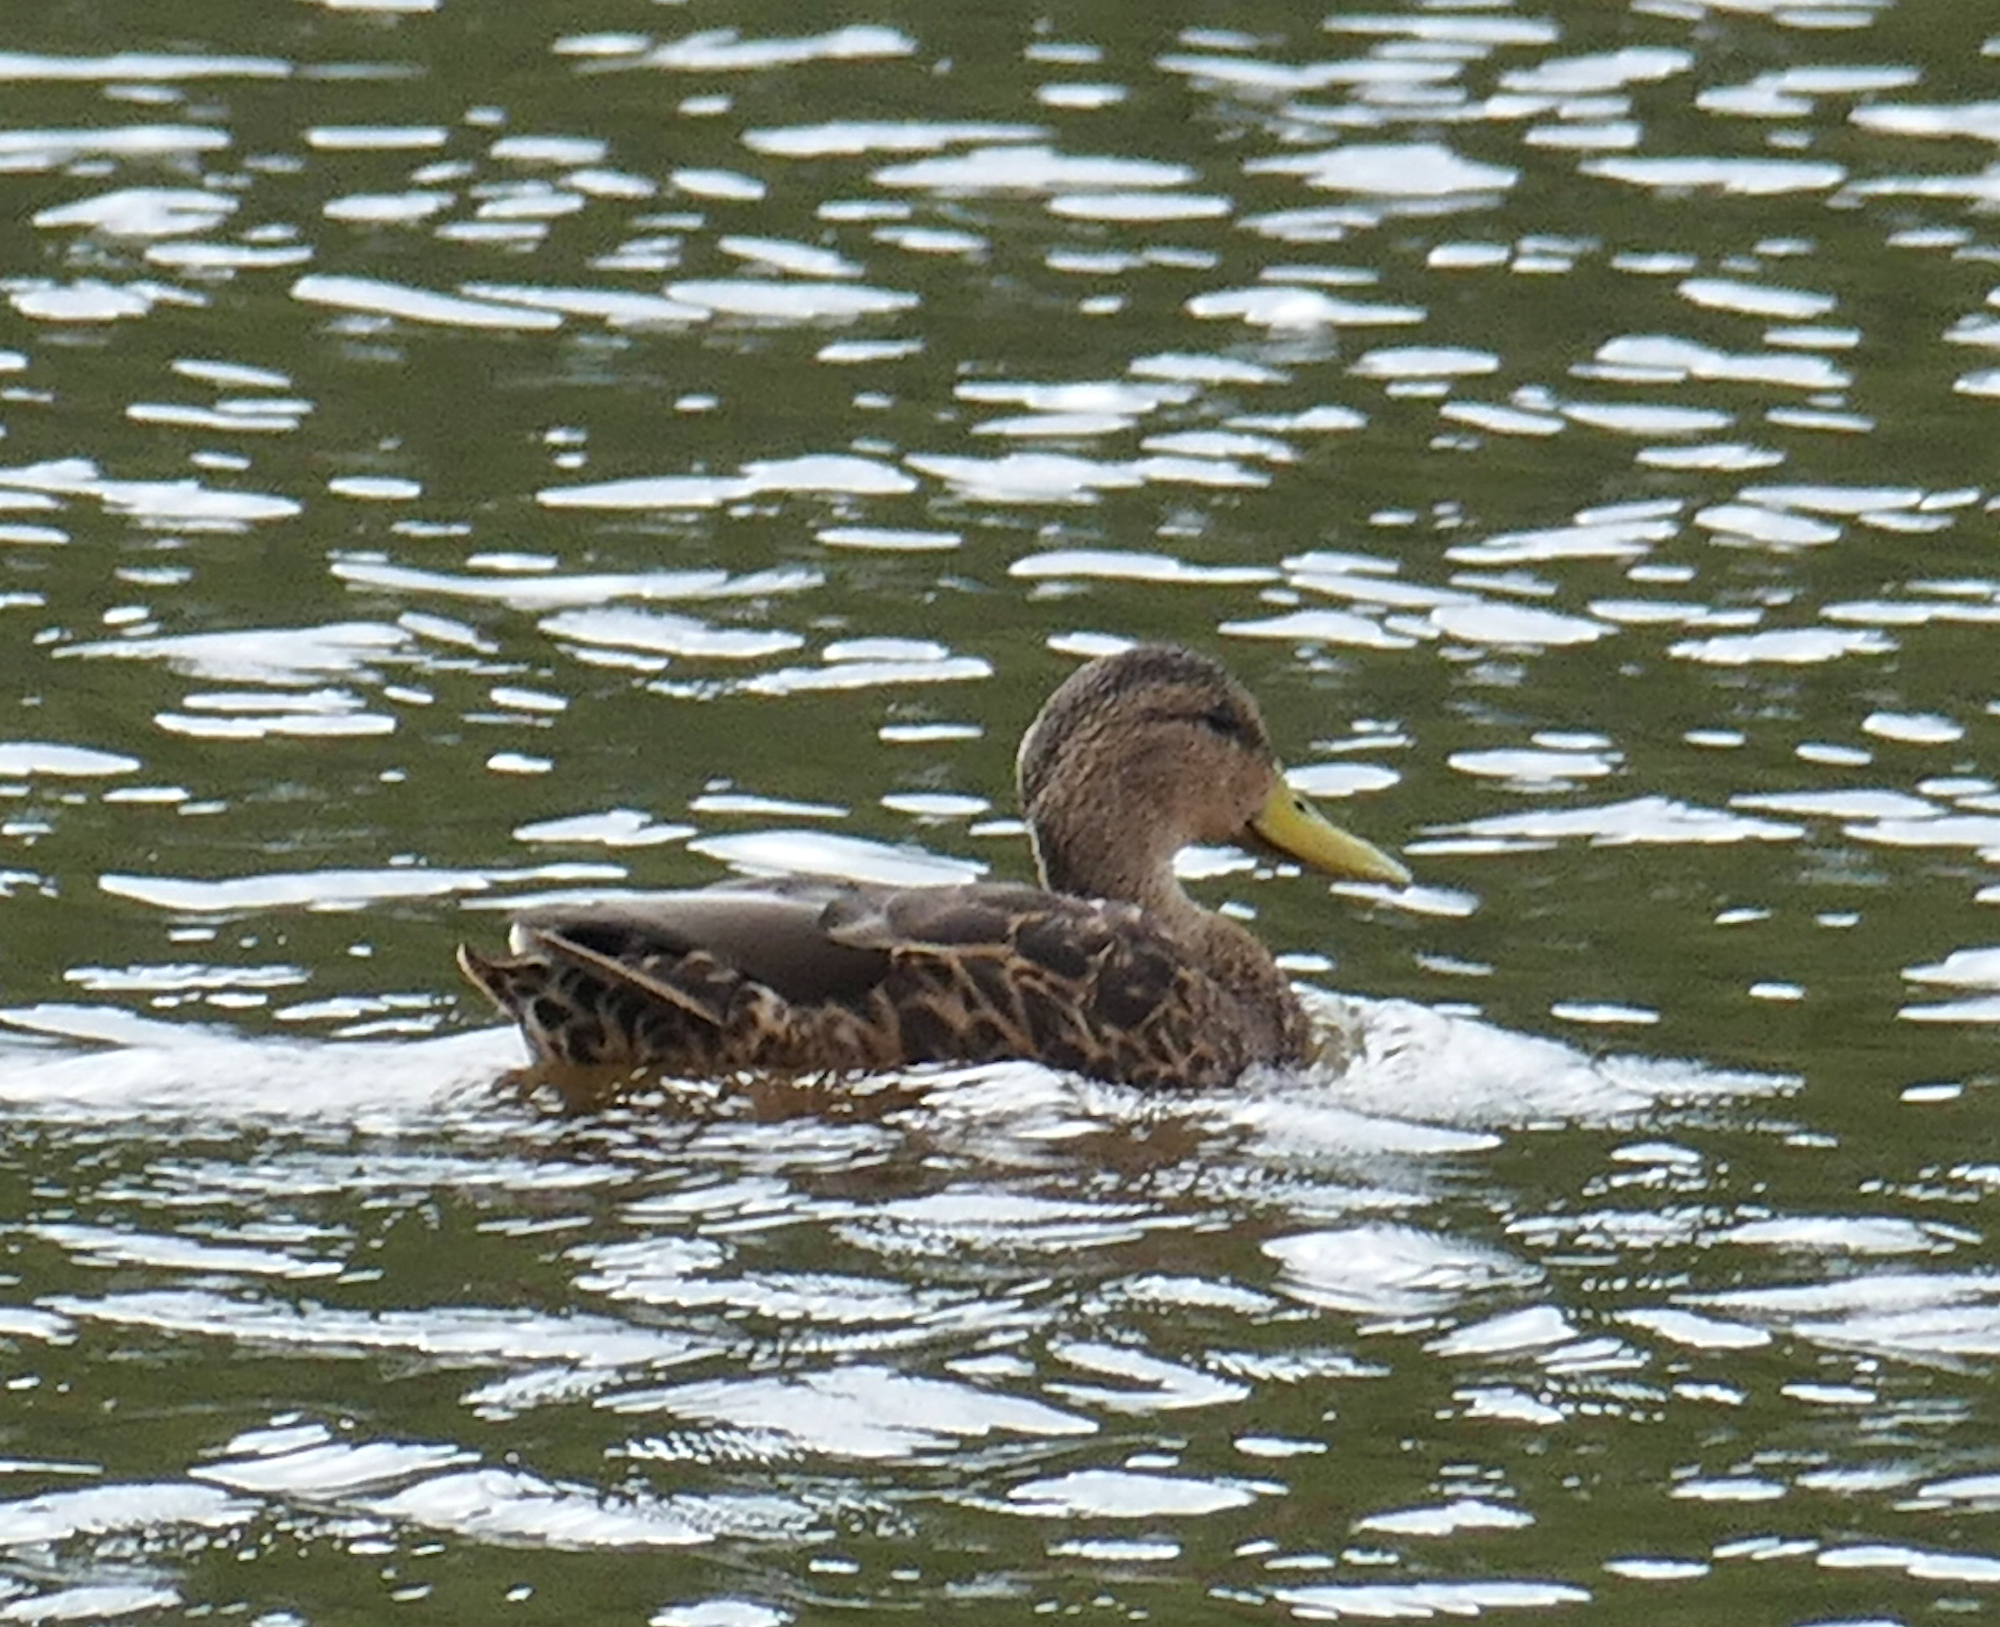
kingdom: Animalia
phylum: Chordata
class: Aves
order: Anseriformes
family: Anatidae
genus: Anas
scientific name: Anas diazi
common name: Mexican duck
